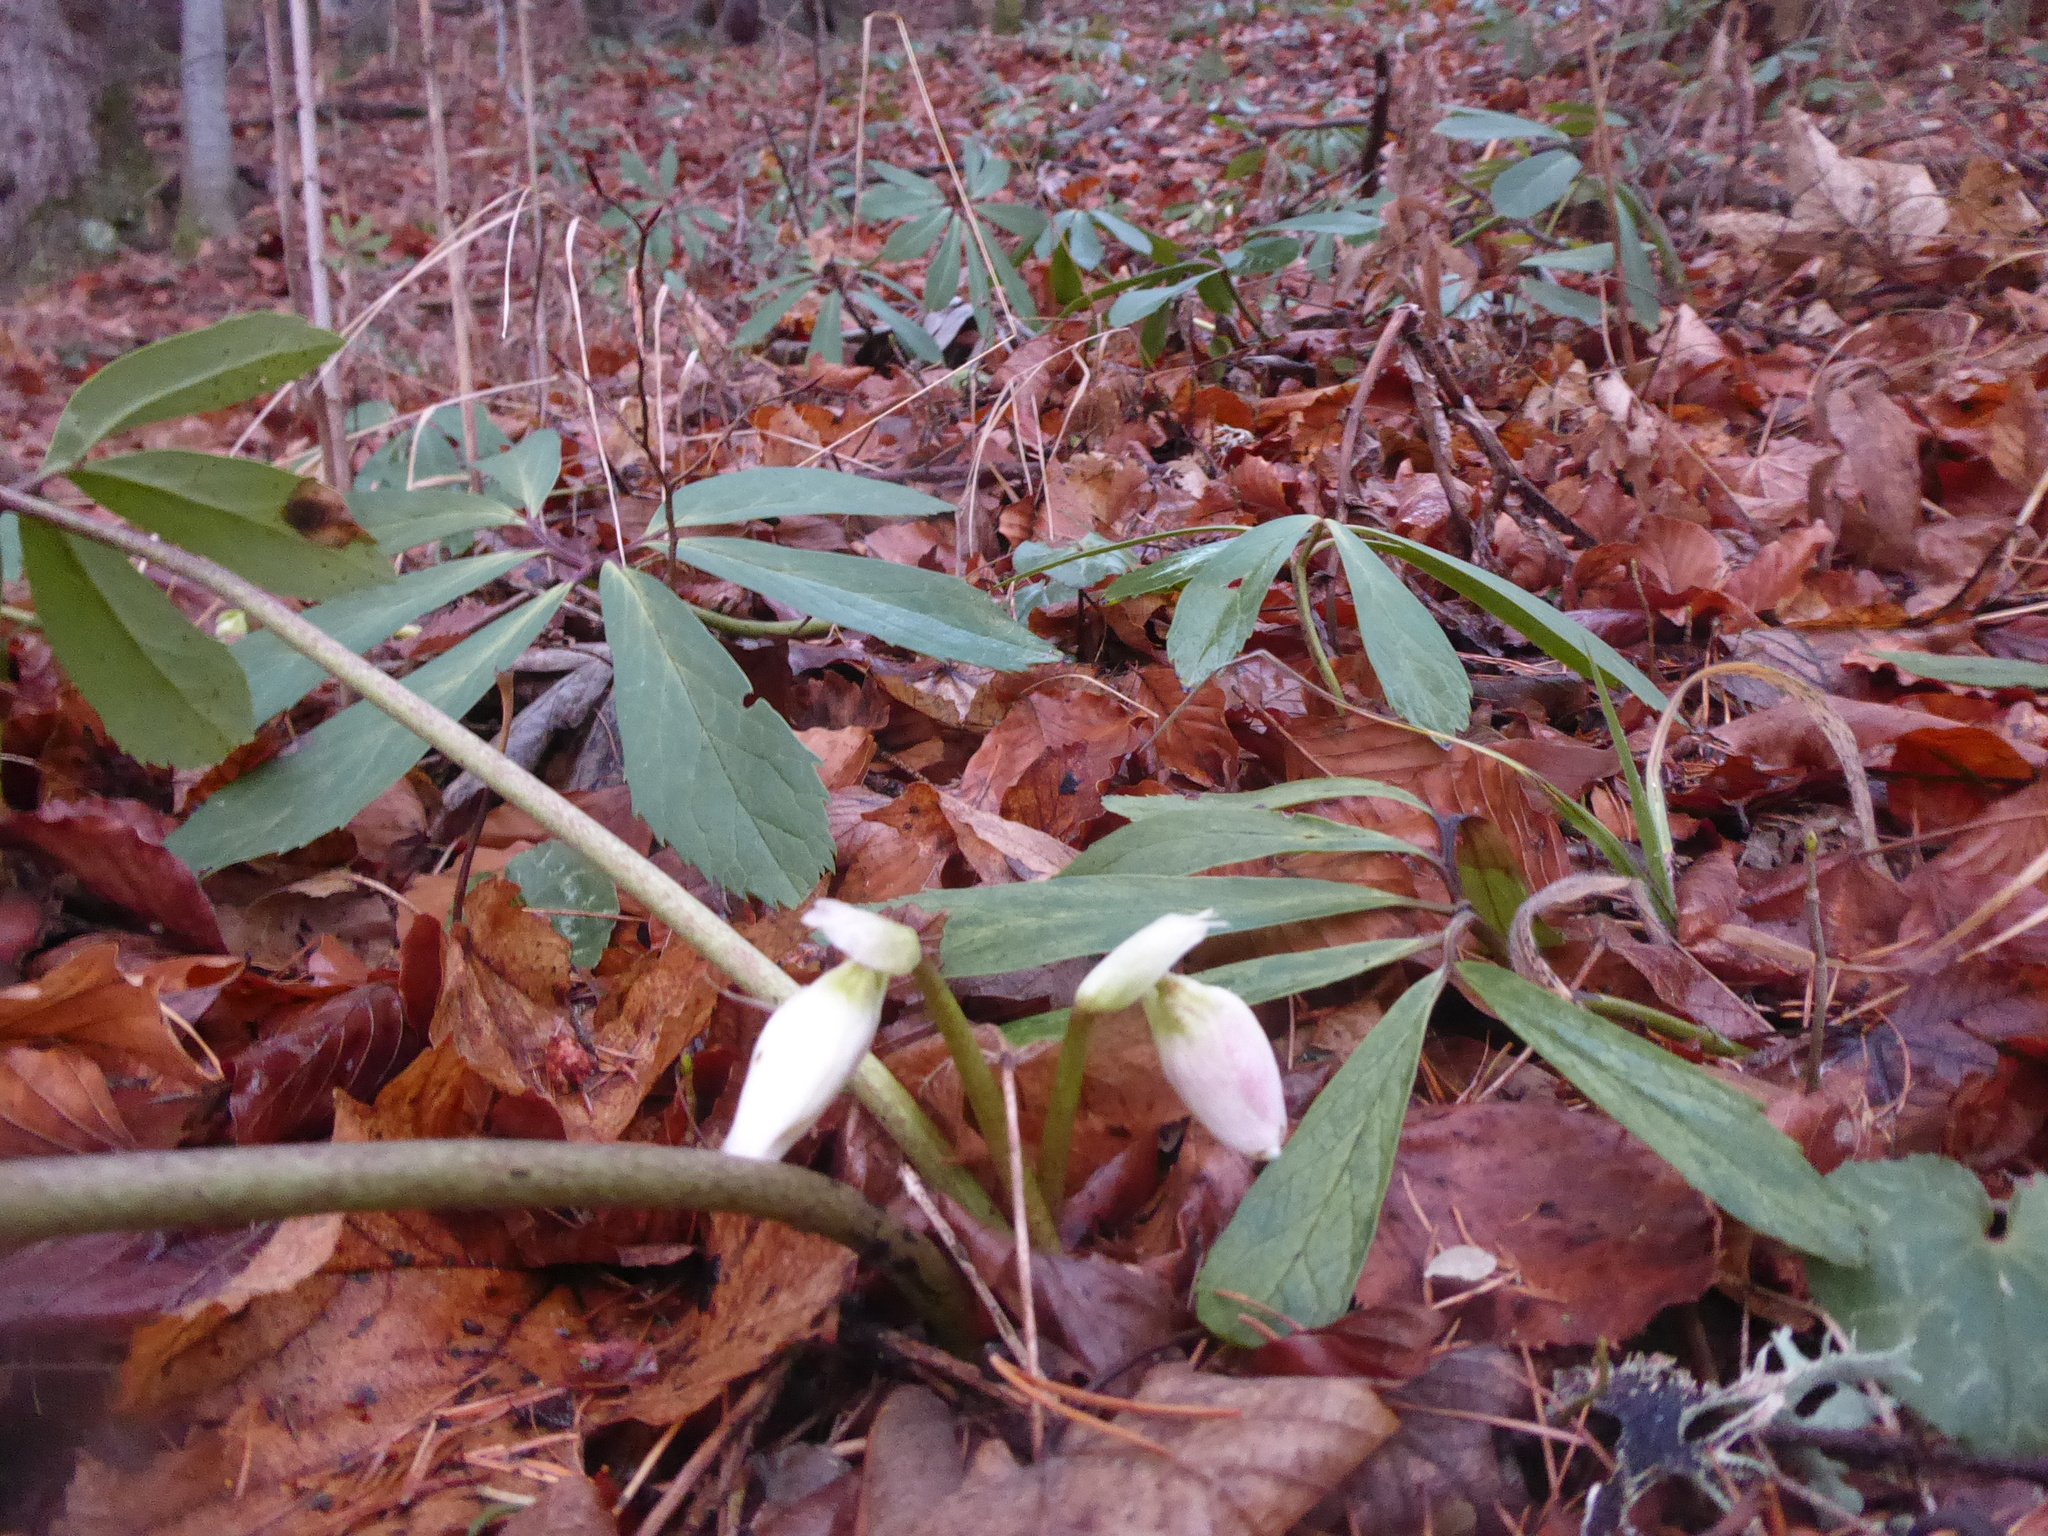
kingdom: Plantae
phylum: Tracheophyta
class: Magnoliopsida
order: Ranunculales
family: Ranunculaceae
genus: Helleborus
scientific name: Helleborus niger
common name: Black hellebore
